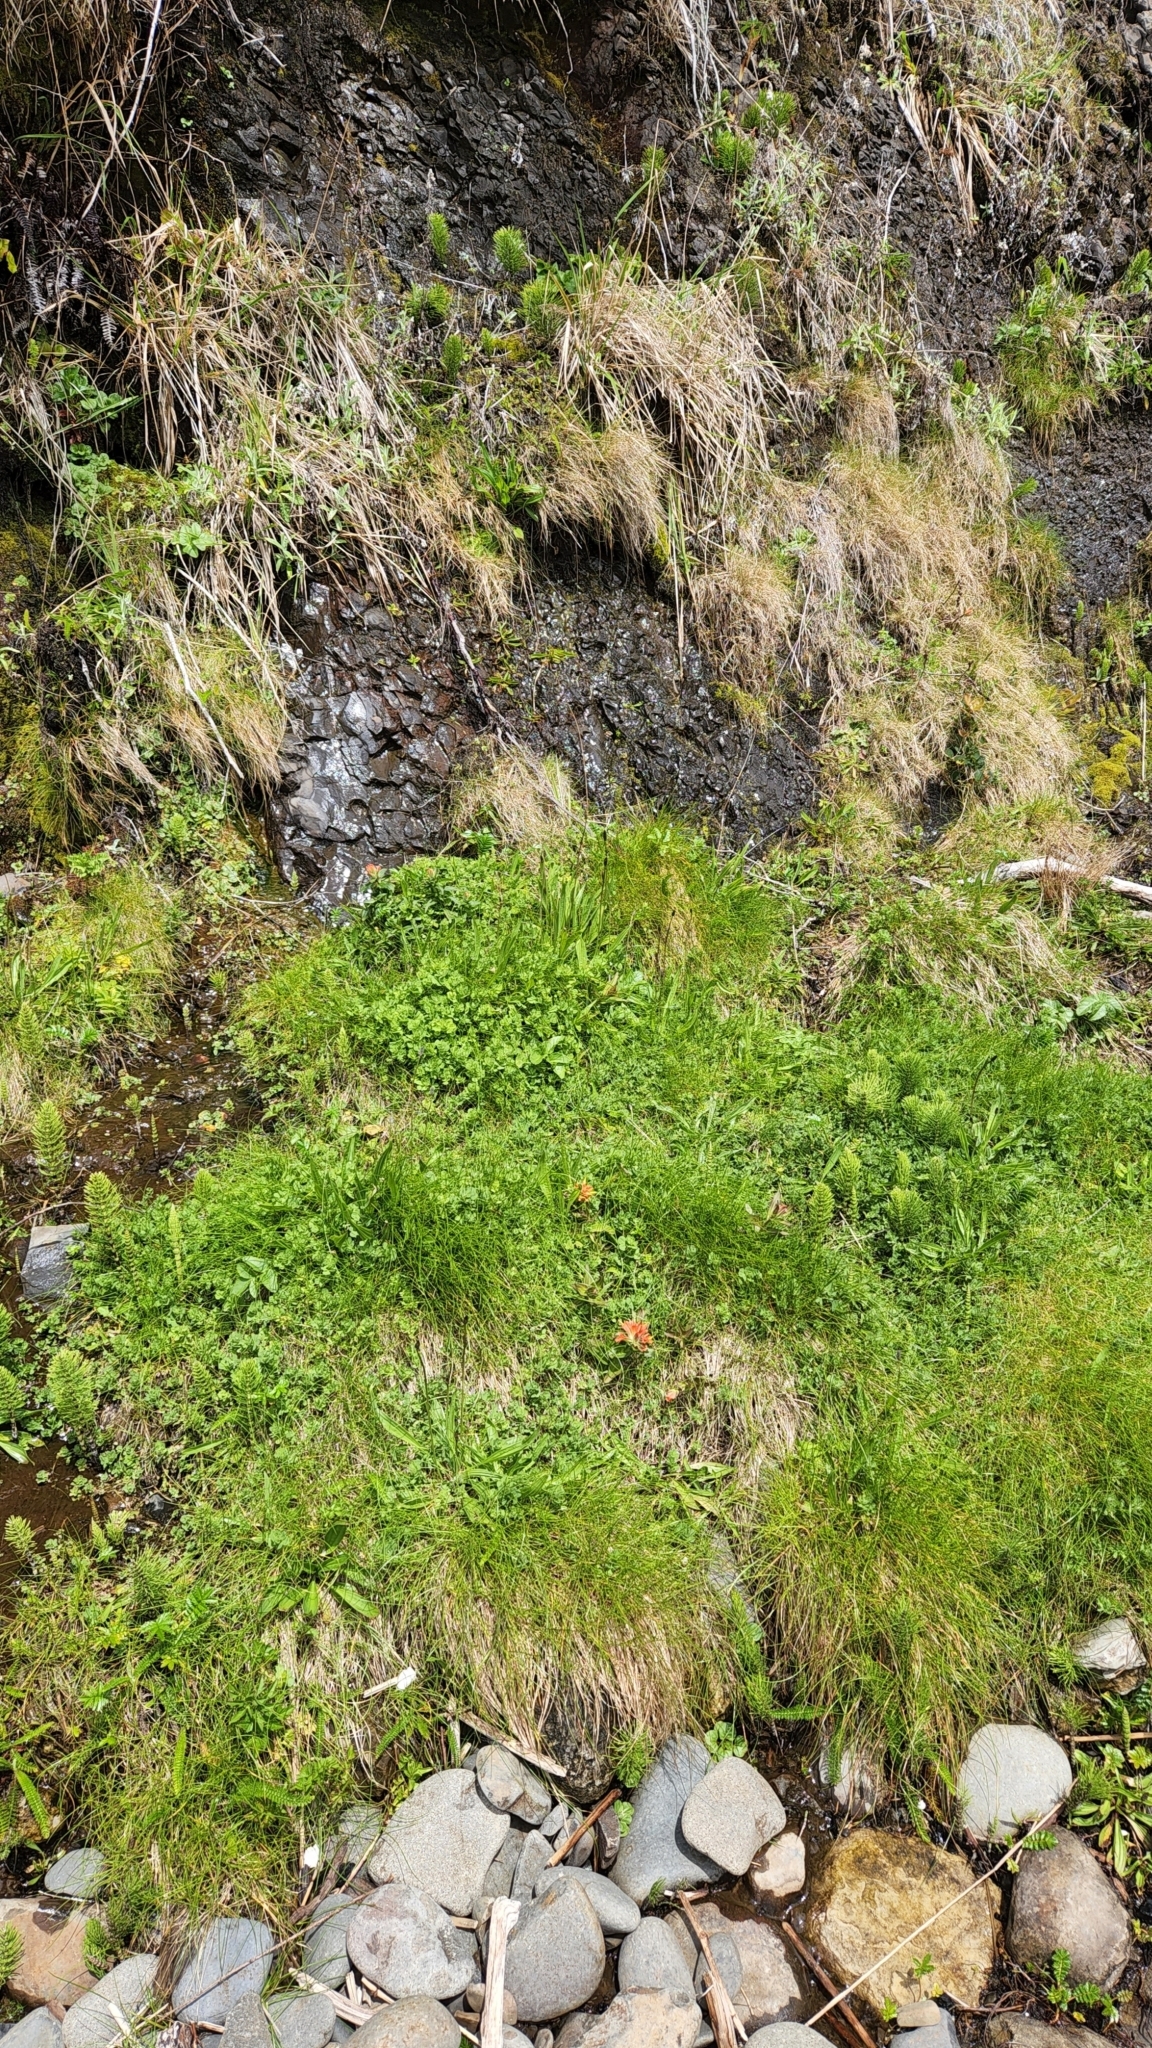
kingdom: Plantae
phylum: Tracheophyta
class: Magnoliopsida
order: Lamiales
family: Orobanchaceae
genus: Castilleja
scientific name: Castilleja litoralis
